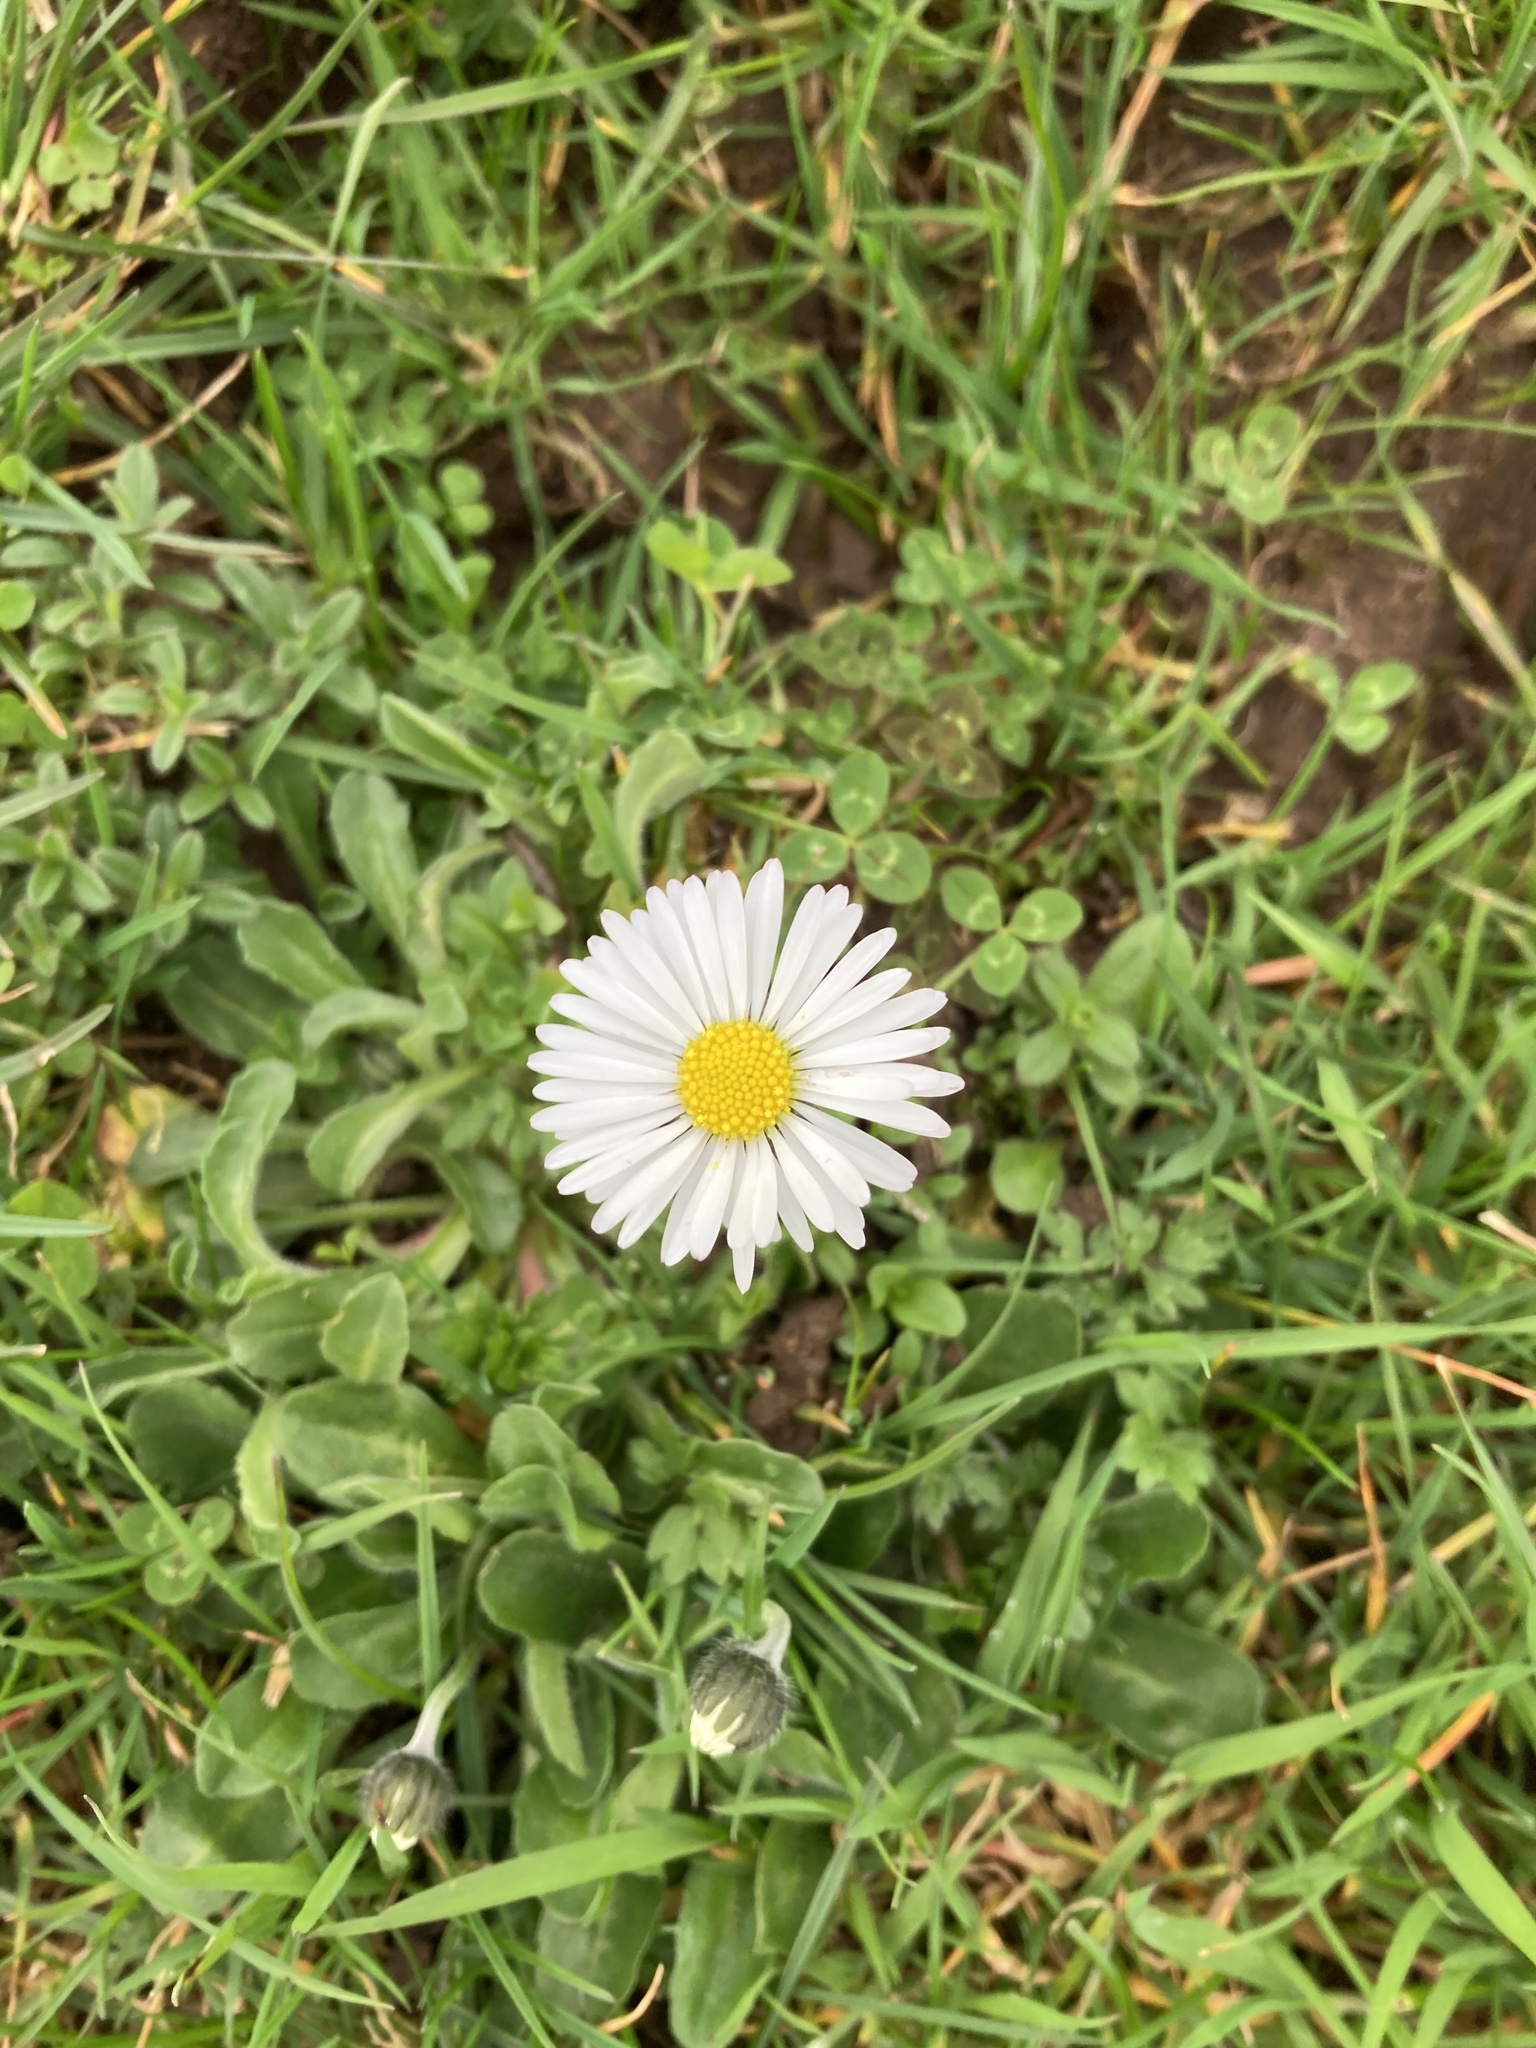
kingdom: Plantae
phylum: Tracheophyta
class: Magnoliopsida
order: Asterales
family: Asteraceae
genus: Bellis
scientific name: Bellis perennis
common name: Lawndaisy
